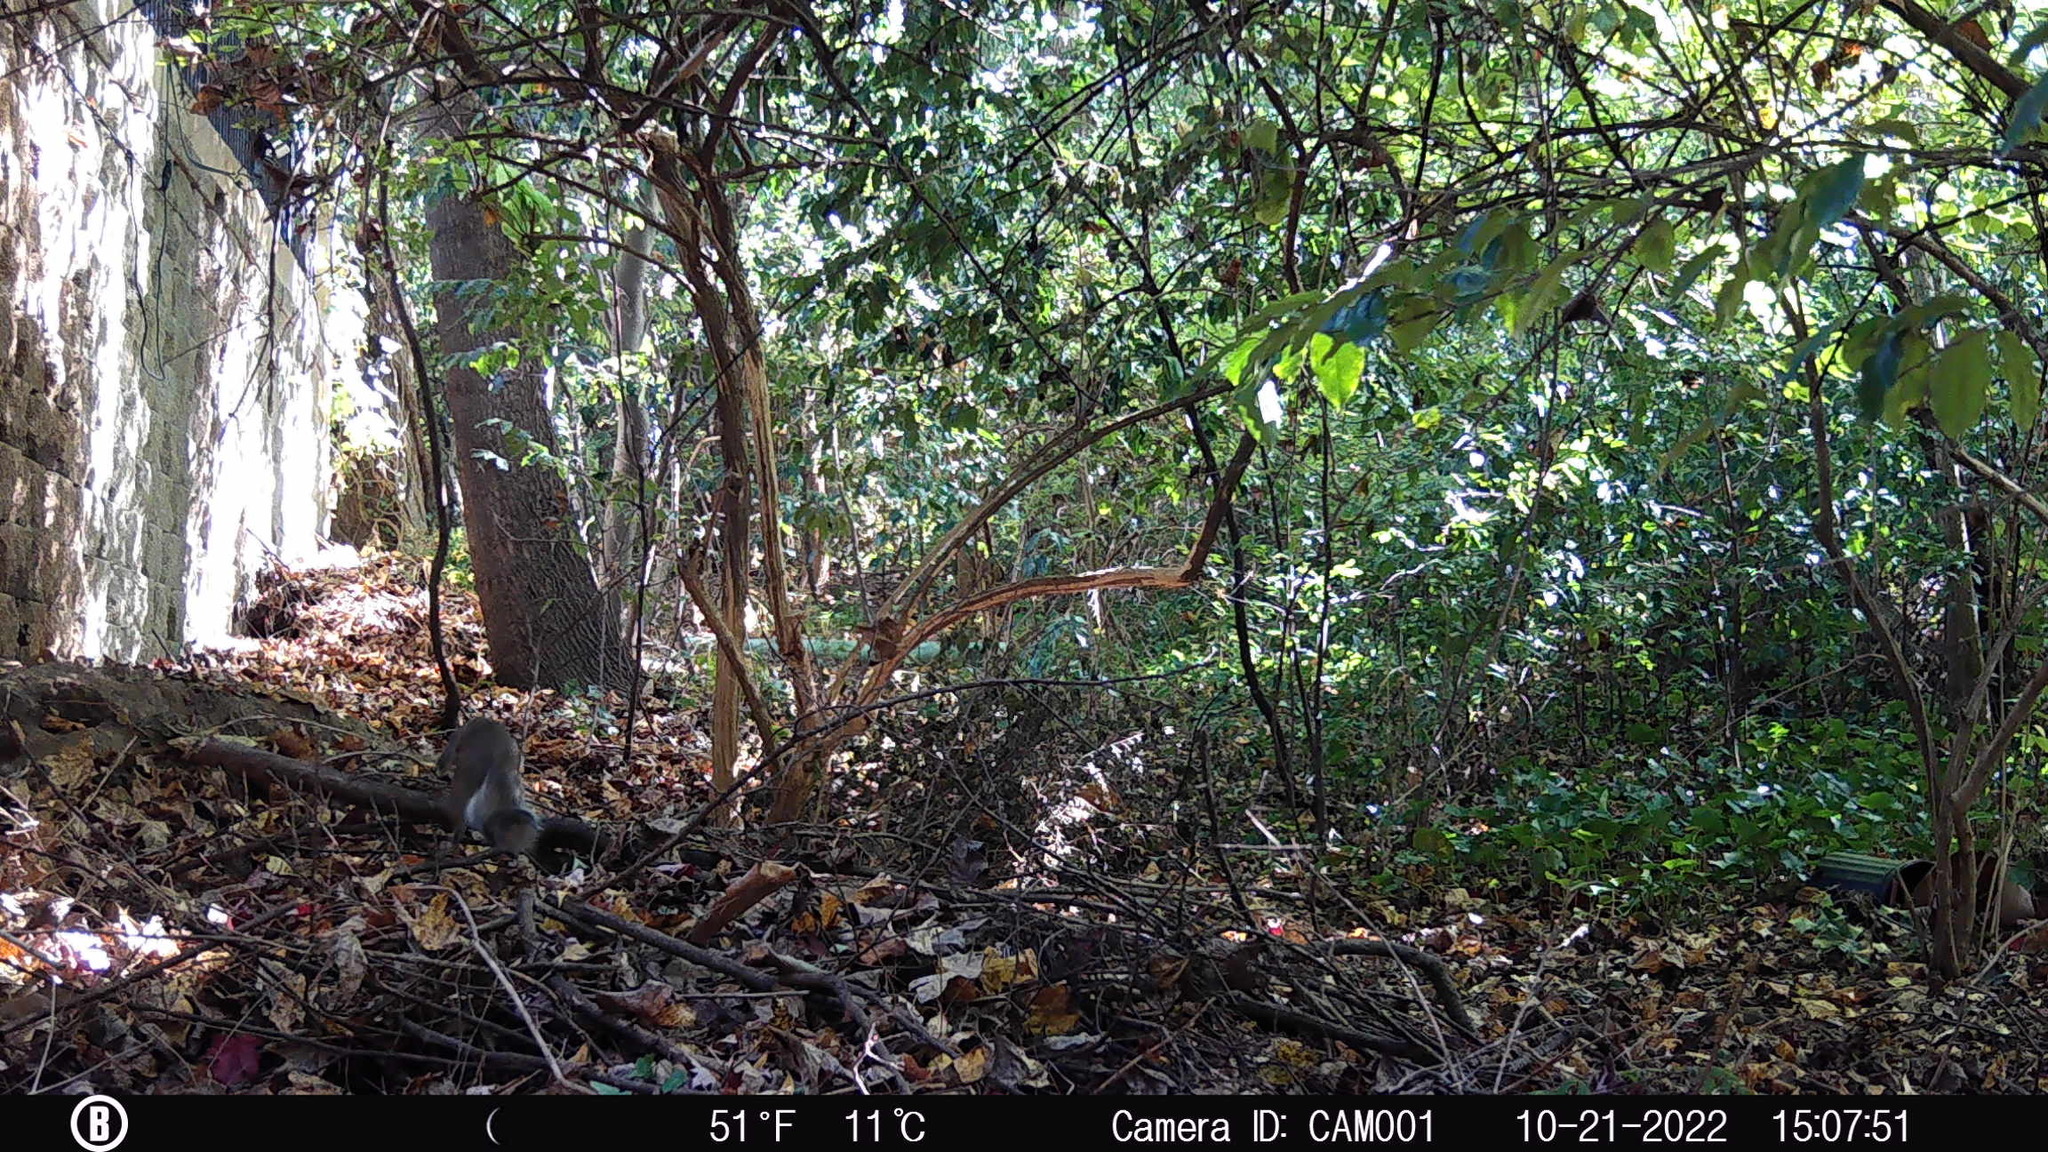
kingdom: Animalia
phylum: Chordata
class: Mammalia
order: Rodentia
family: Sciuridae
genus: Sciurus
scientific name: Sciurus carolinensis
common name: Eastern gray squirrel
